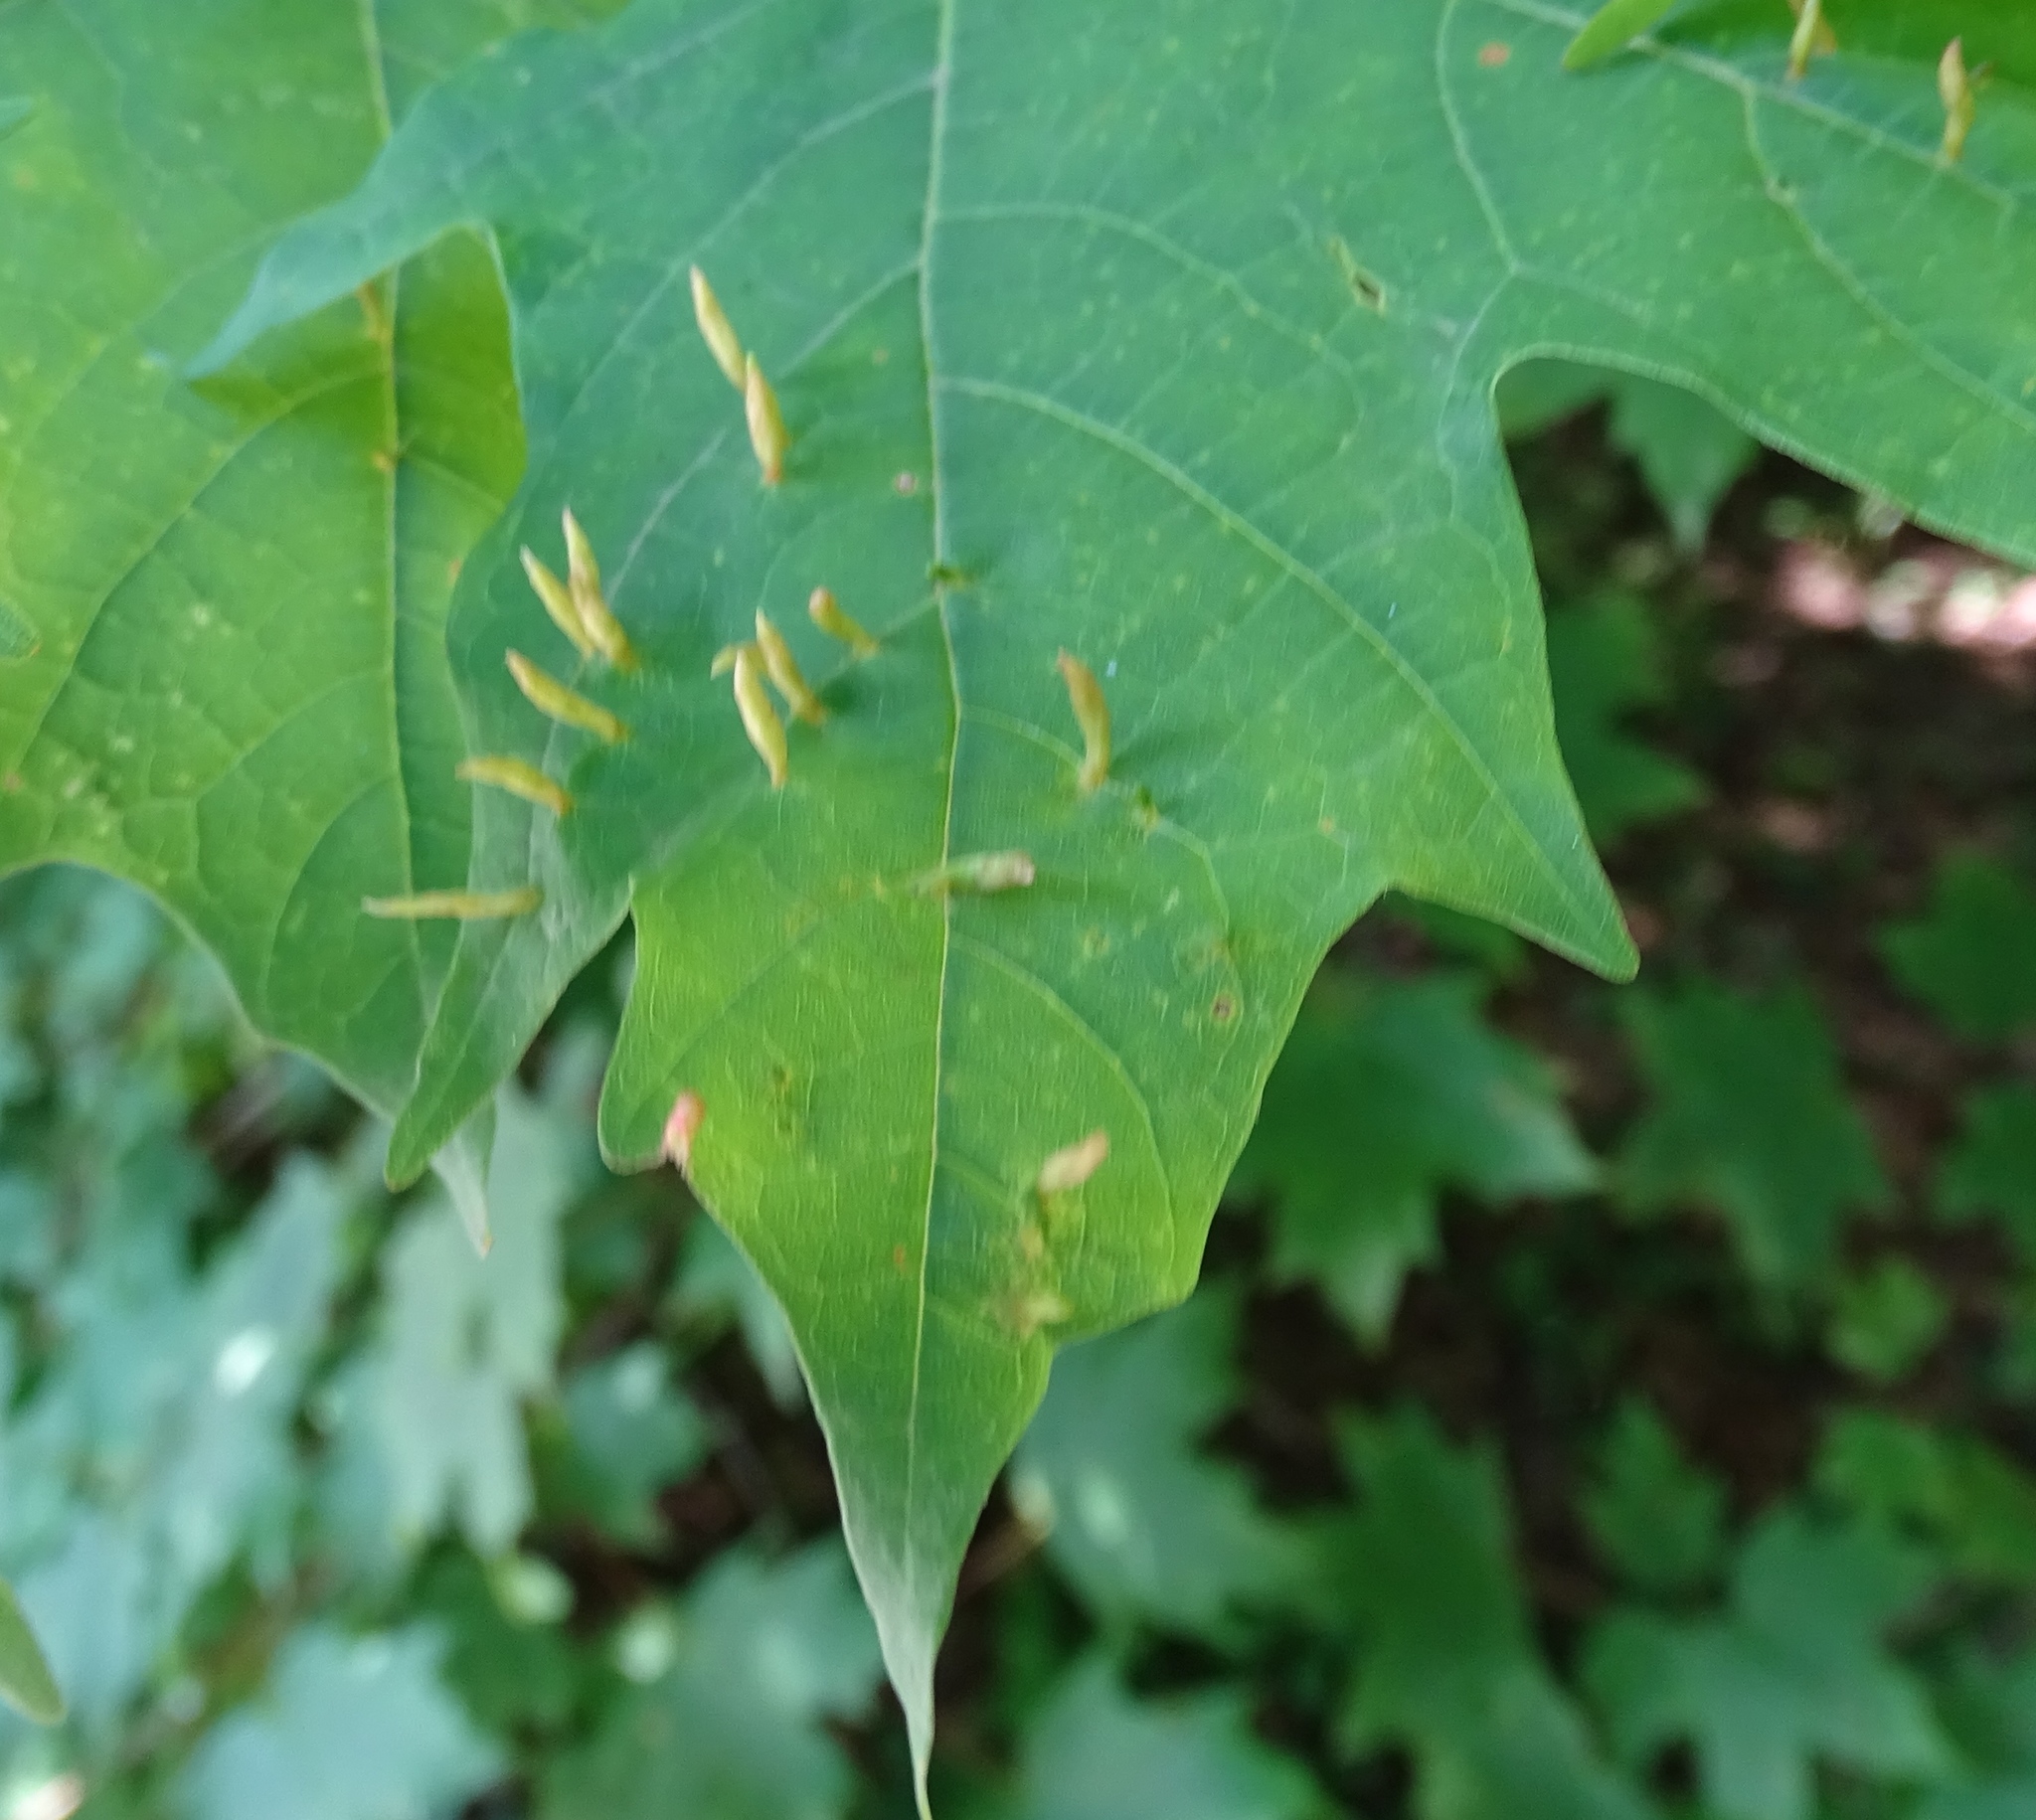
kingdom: Animalia
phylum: Arthropoda
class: Arachnida
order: Trombidiformes
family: Eriophyidae
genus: Vasates
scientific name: Vasates aceriscrumena
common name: Maple spindle gall mite
